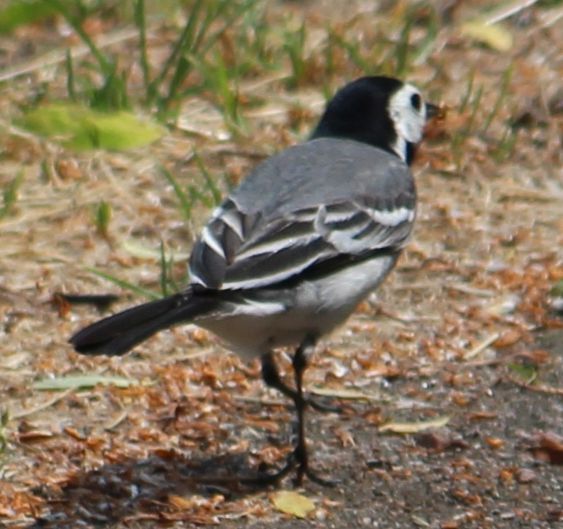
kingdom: Animalia
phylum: Chordata
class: Aves
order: Passeriformes
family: Motacillidae
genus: Motacilla
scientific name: Motacilla alba
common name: White wagtail
